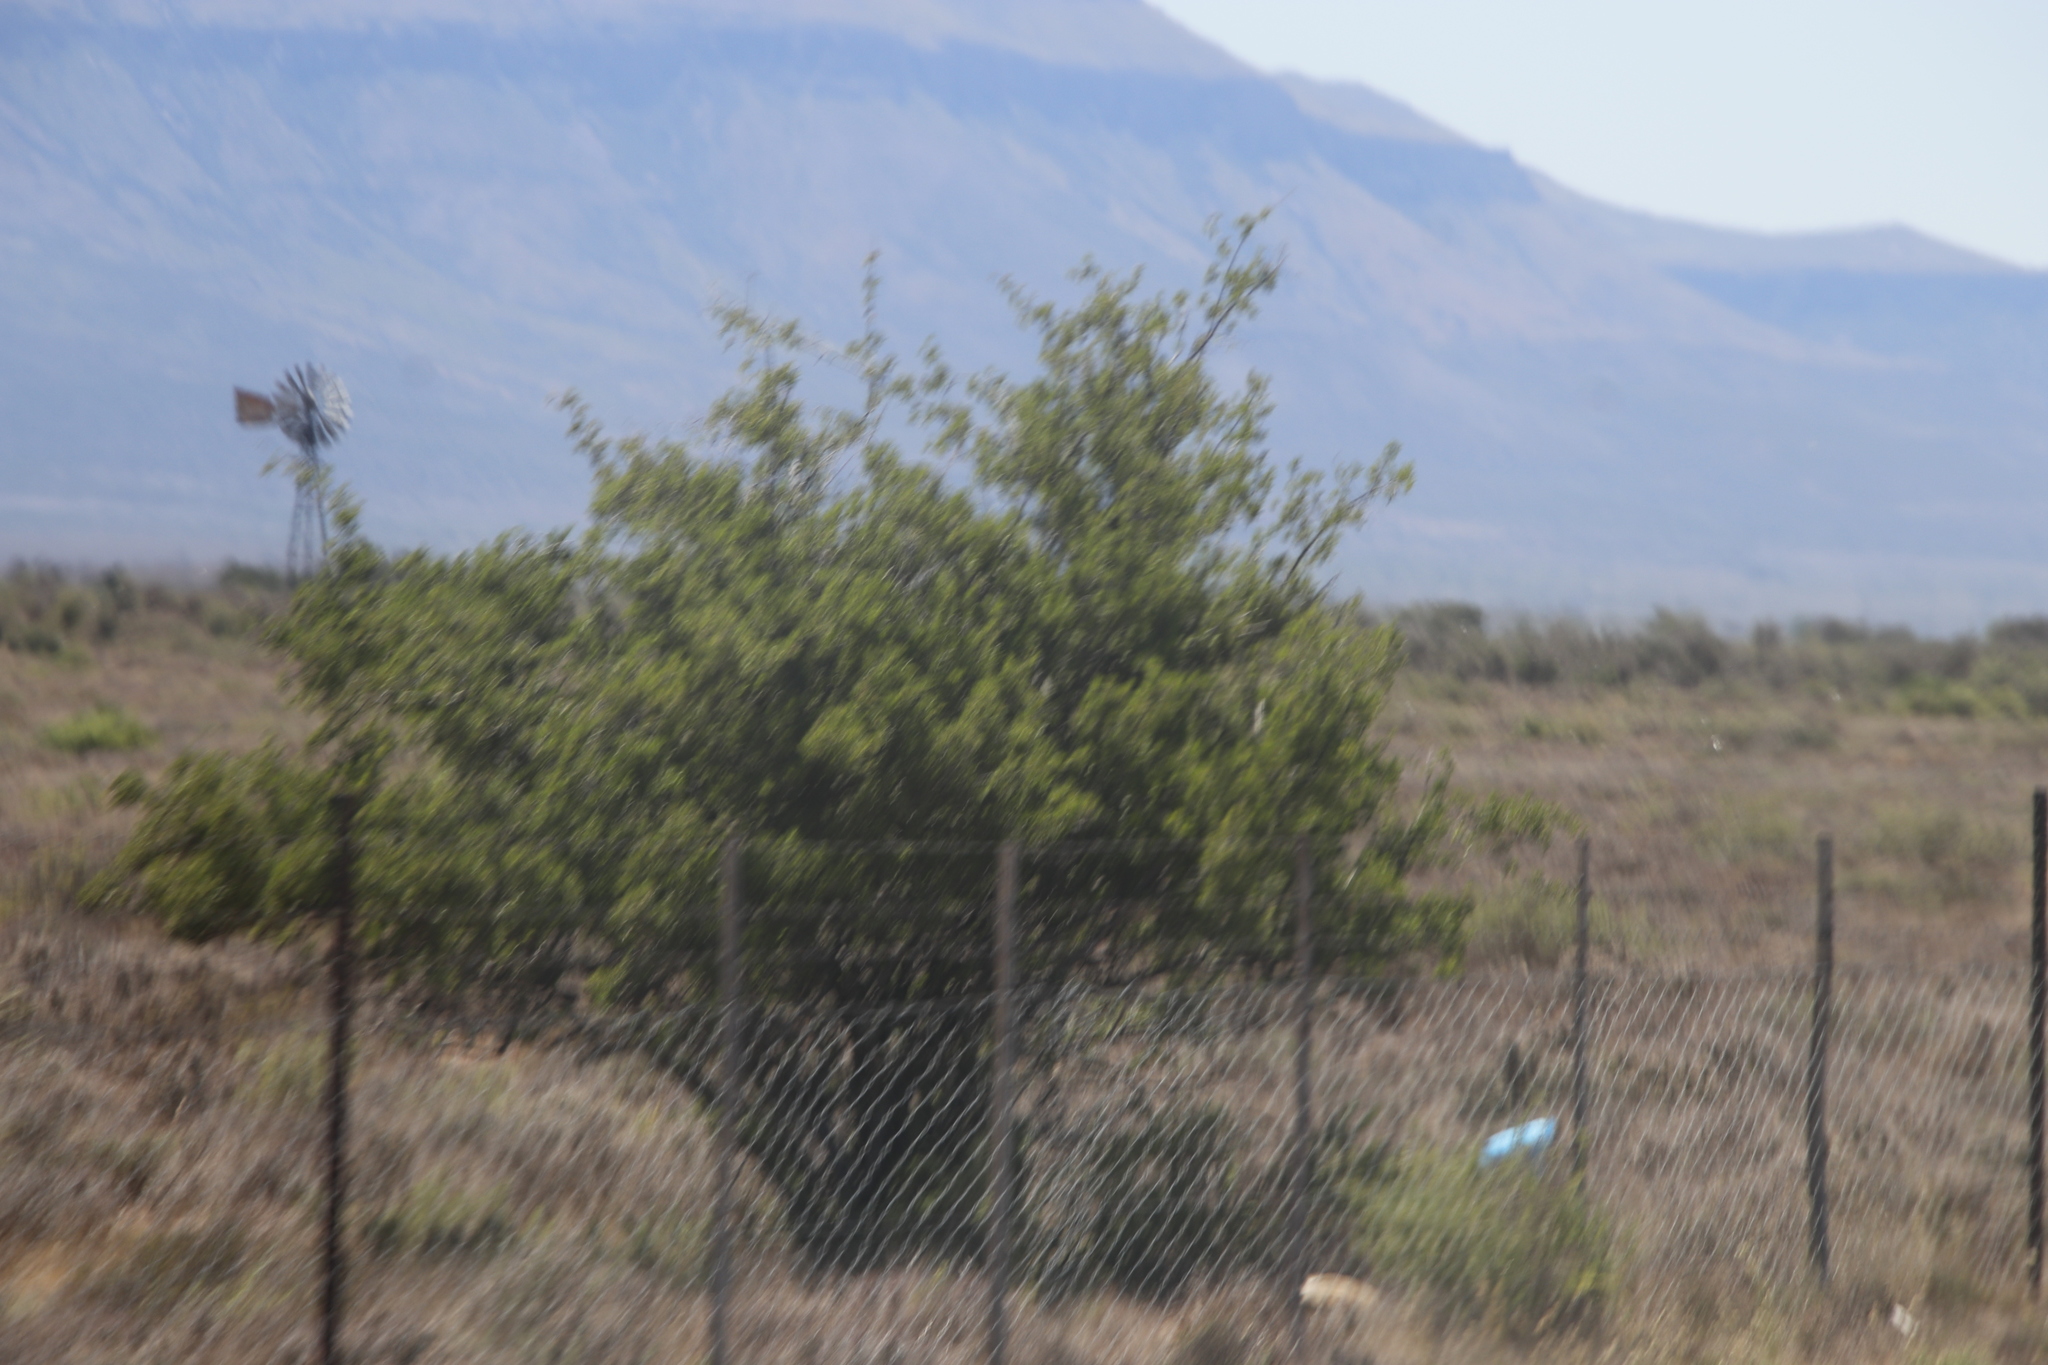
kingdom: Plantae
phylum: Tracheophyta
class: Magnoliopsida
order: Fabales
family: Fabaceae
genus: Vachellia
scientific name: Vachellia karroo
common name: Sweet thorn
